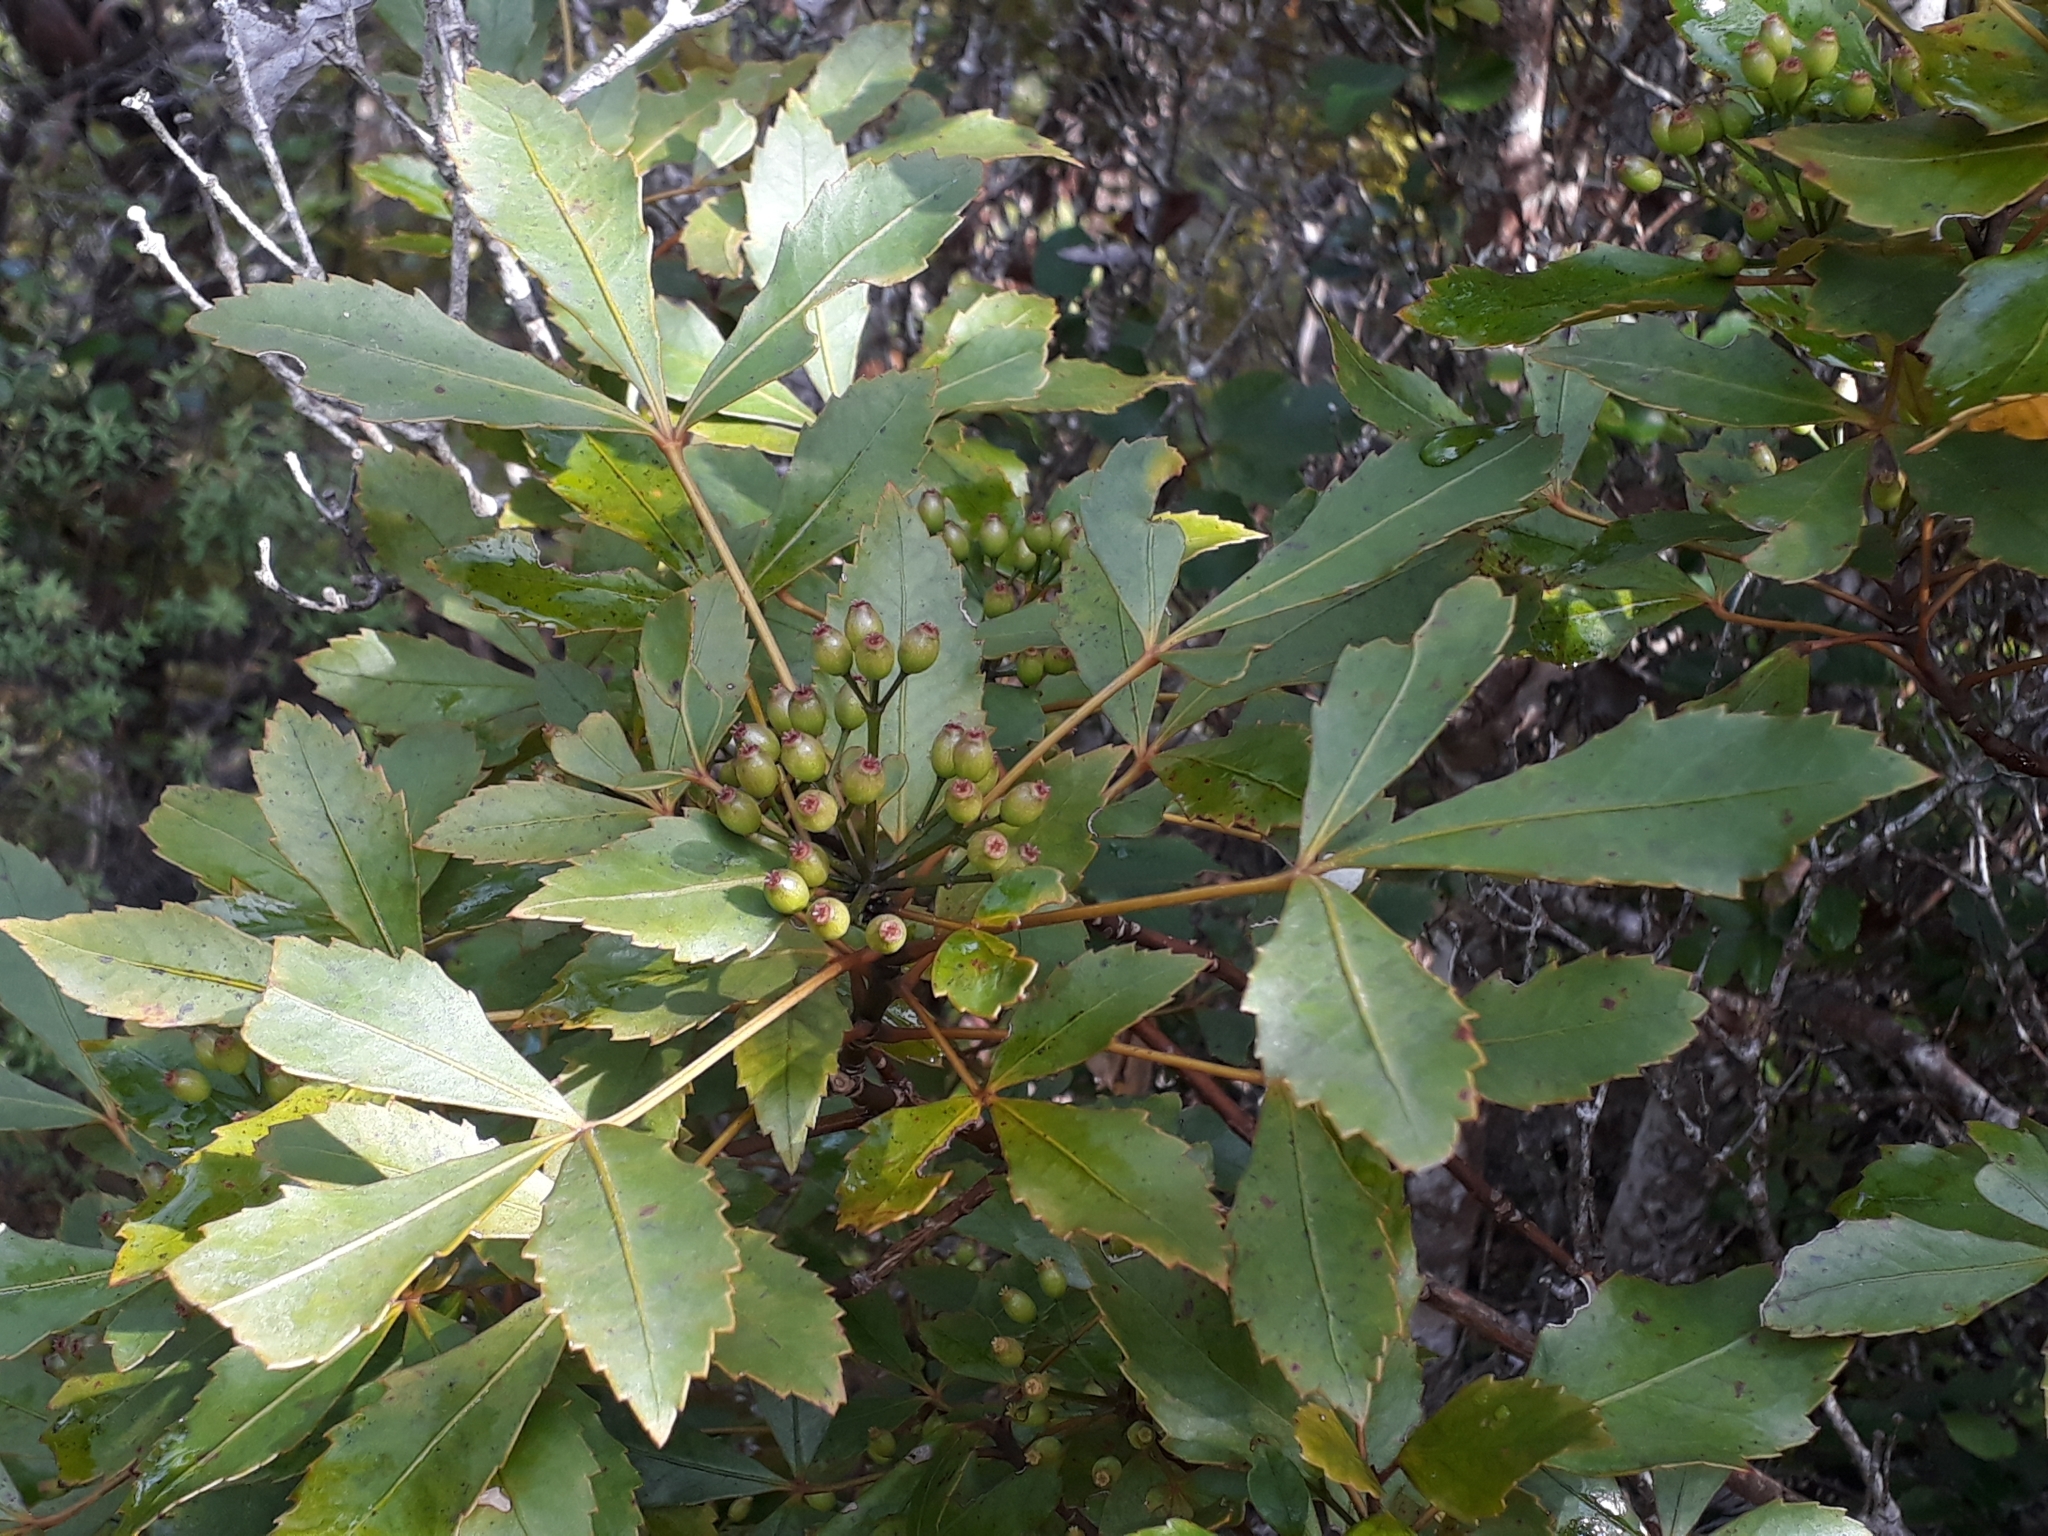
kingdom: Plantae
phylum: Tracheophyta
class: Magnoliopsida
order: Apiales
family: Araliaceae
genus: Pseudopanax
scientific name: Pseudopanax discolor
